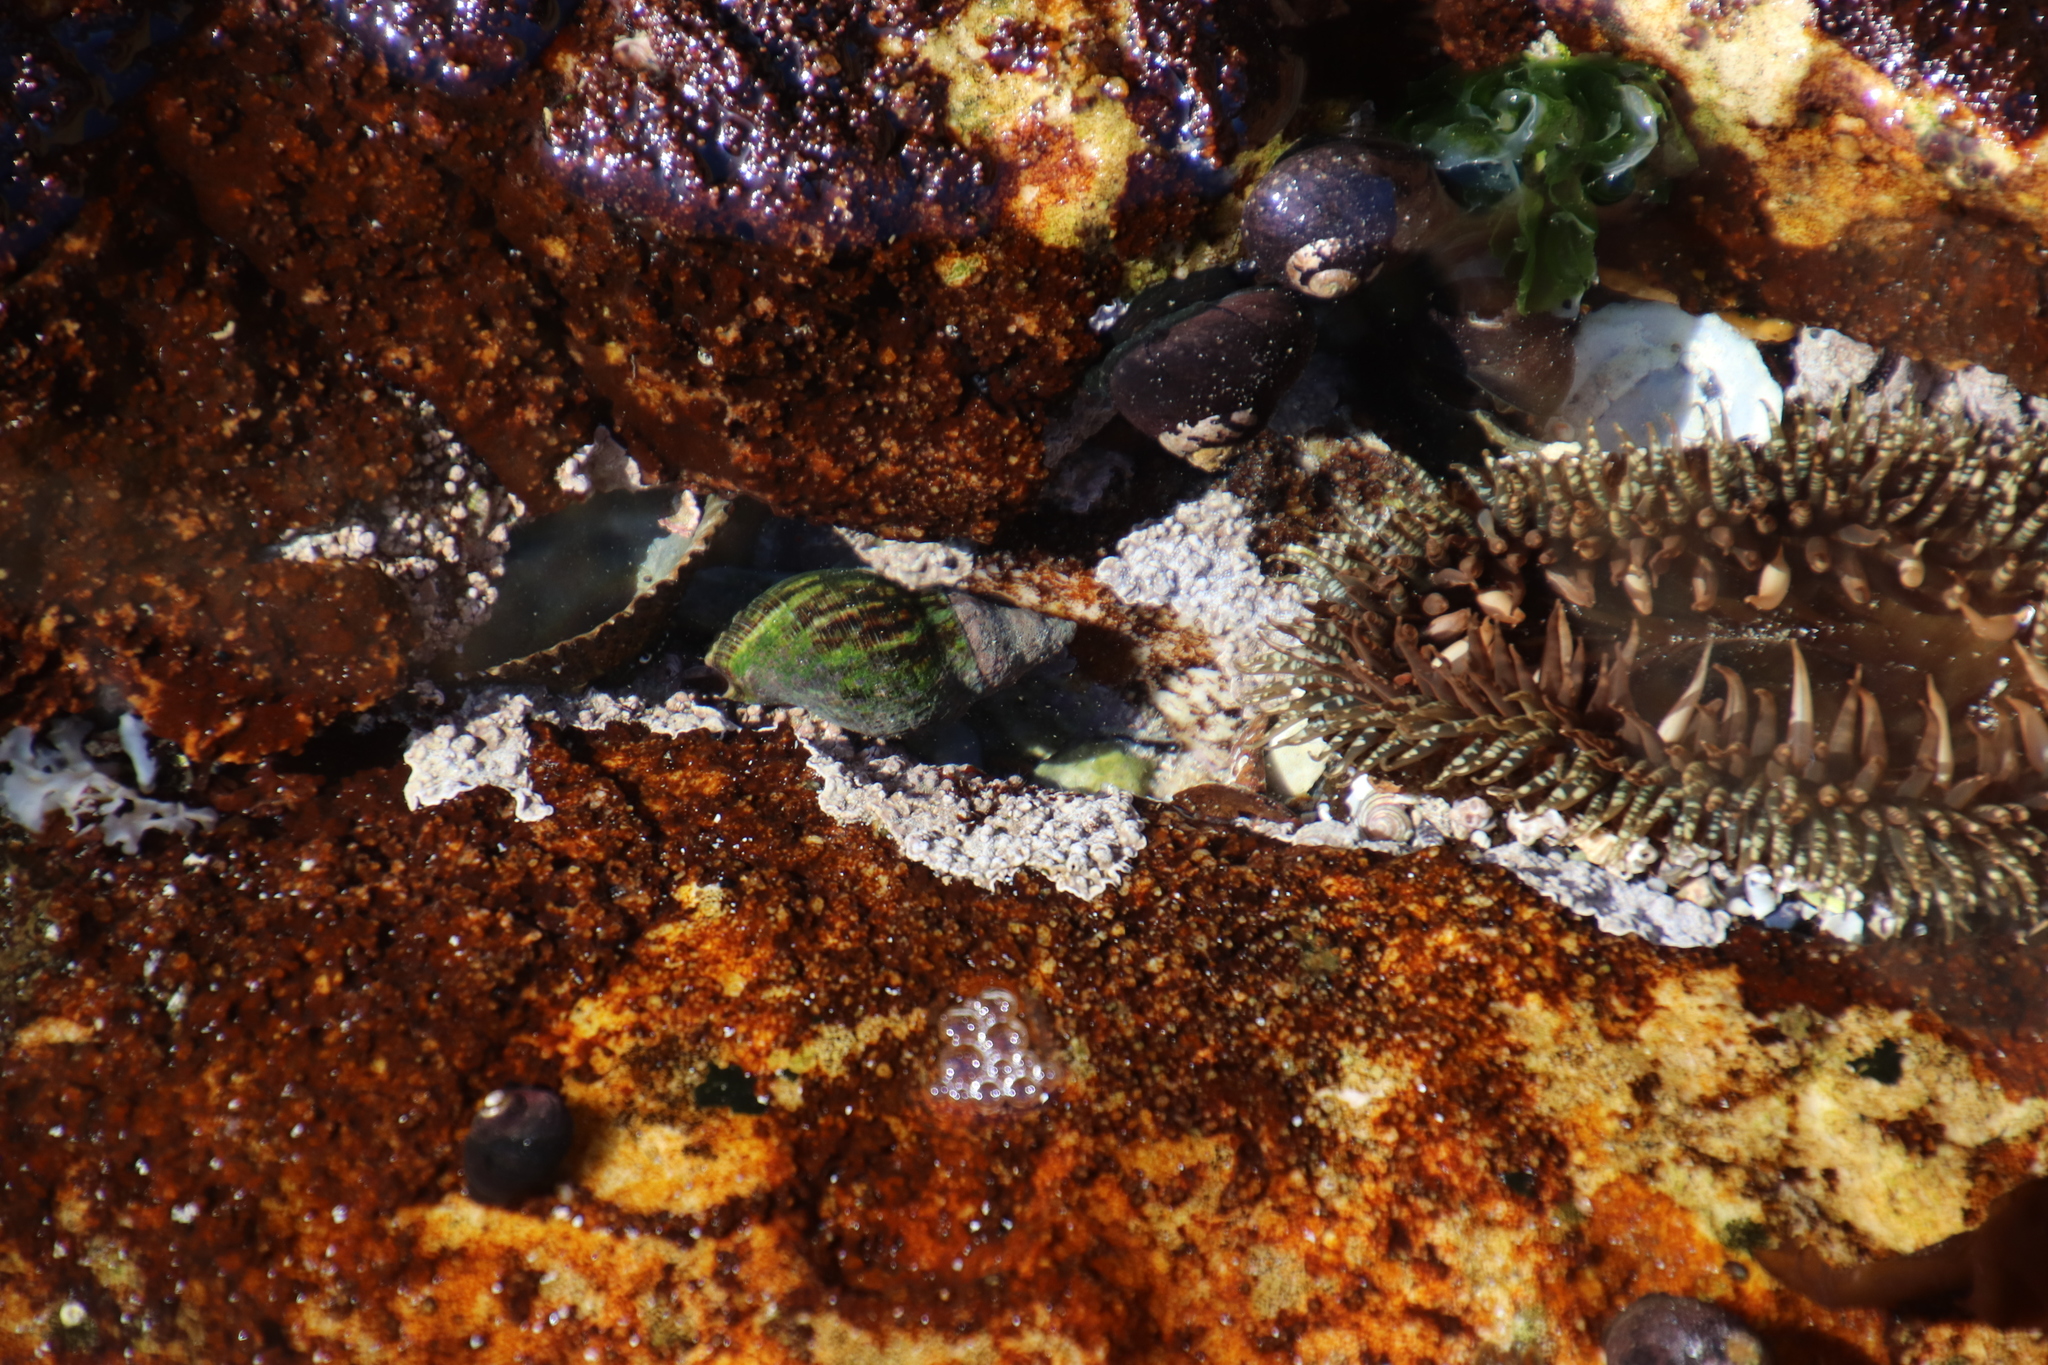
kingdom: Animalia
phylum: Mollusca
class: Gastropoda
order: Neogastropoda
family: Buccinidae
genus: Burnupena
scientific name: Burnupena papyracea
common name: Papery burnupena
